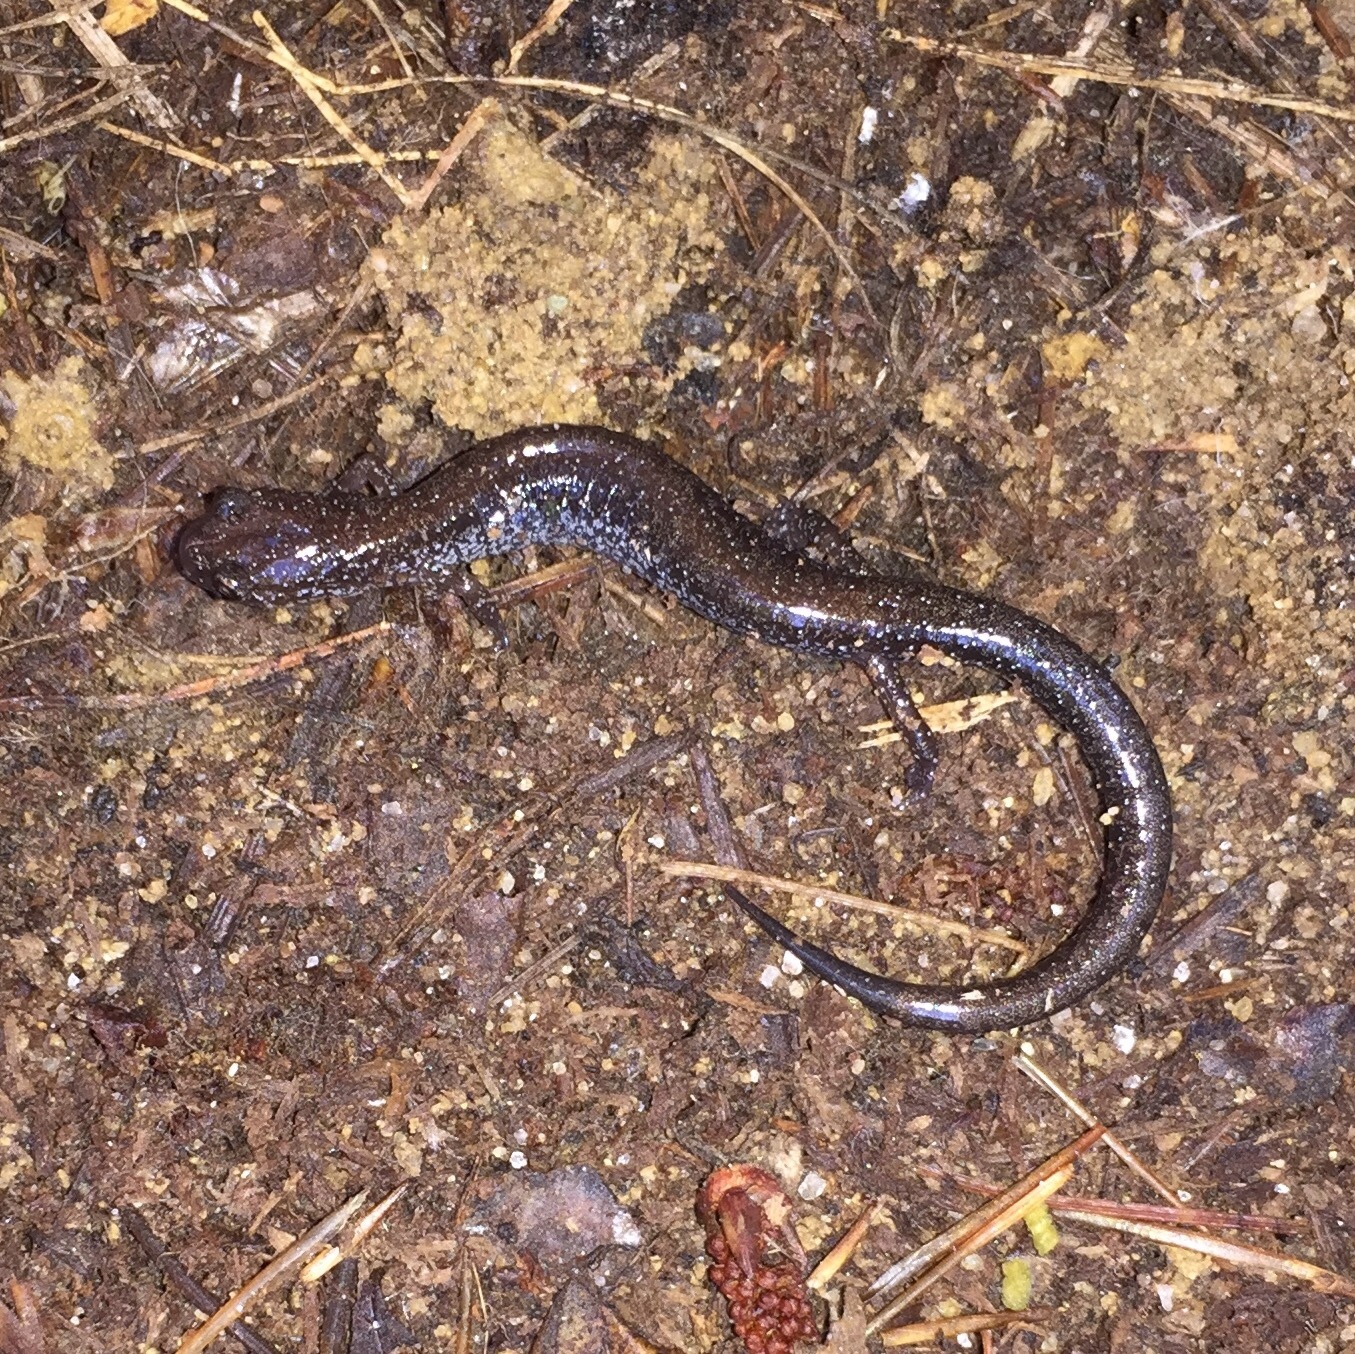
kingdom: Animalia
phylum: Chordata
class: Amphibia
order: Caudata
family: Plethodontidae
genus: Plethodon
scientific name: Plethodon cinereus
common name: Redback salamander
